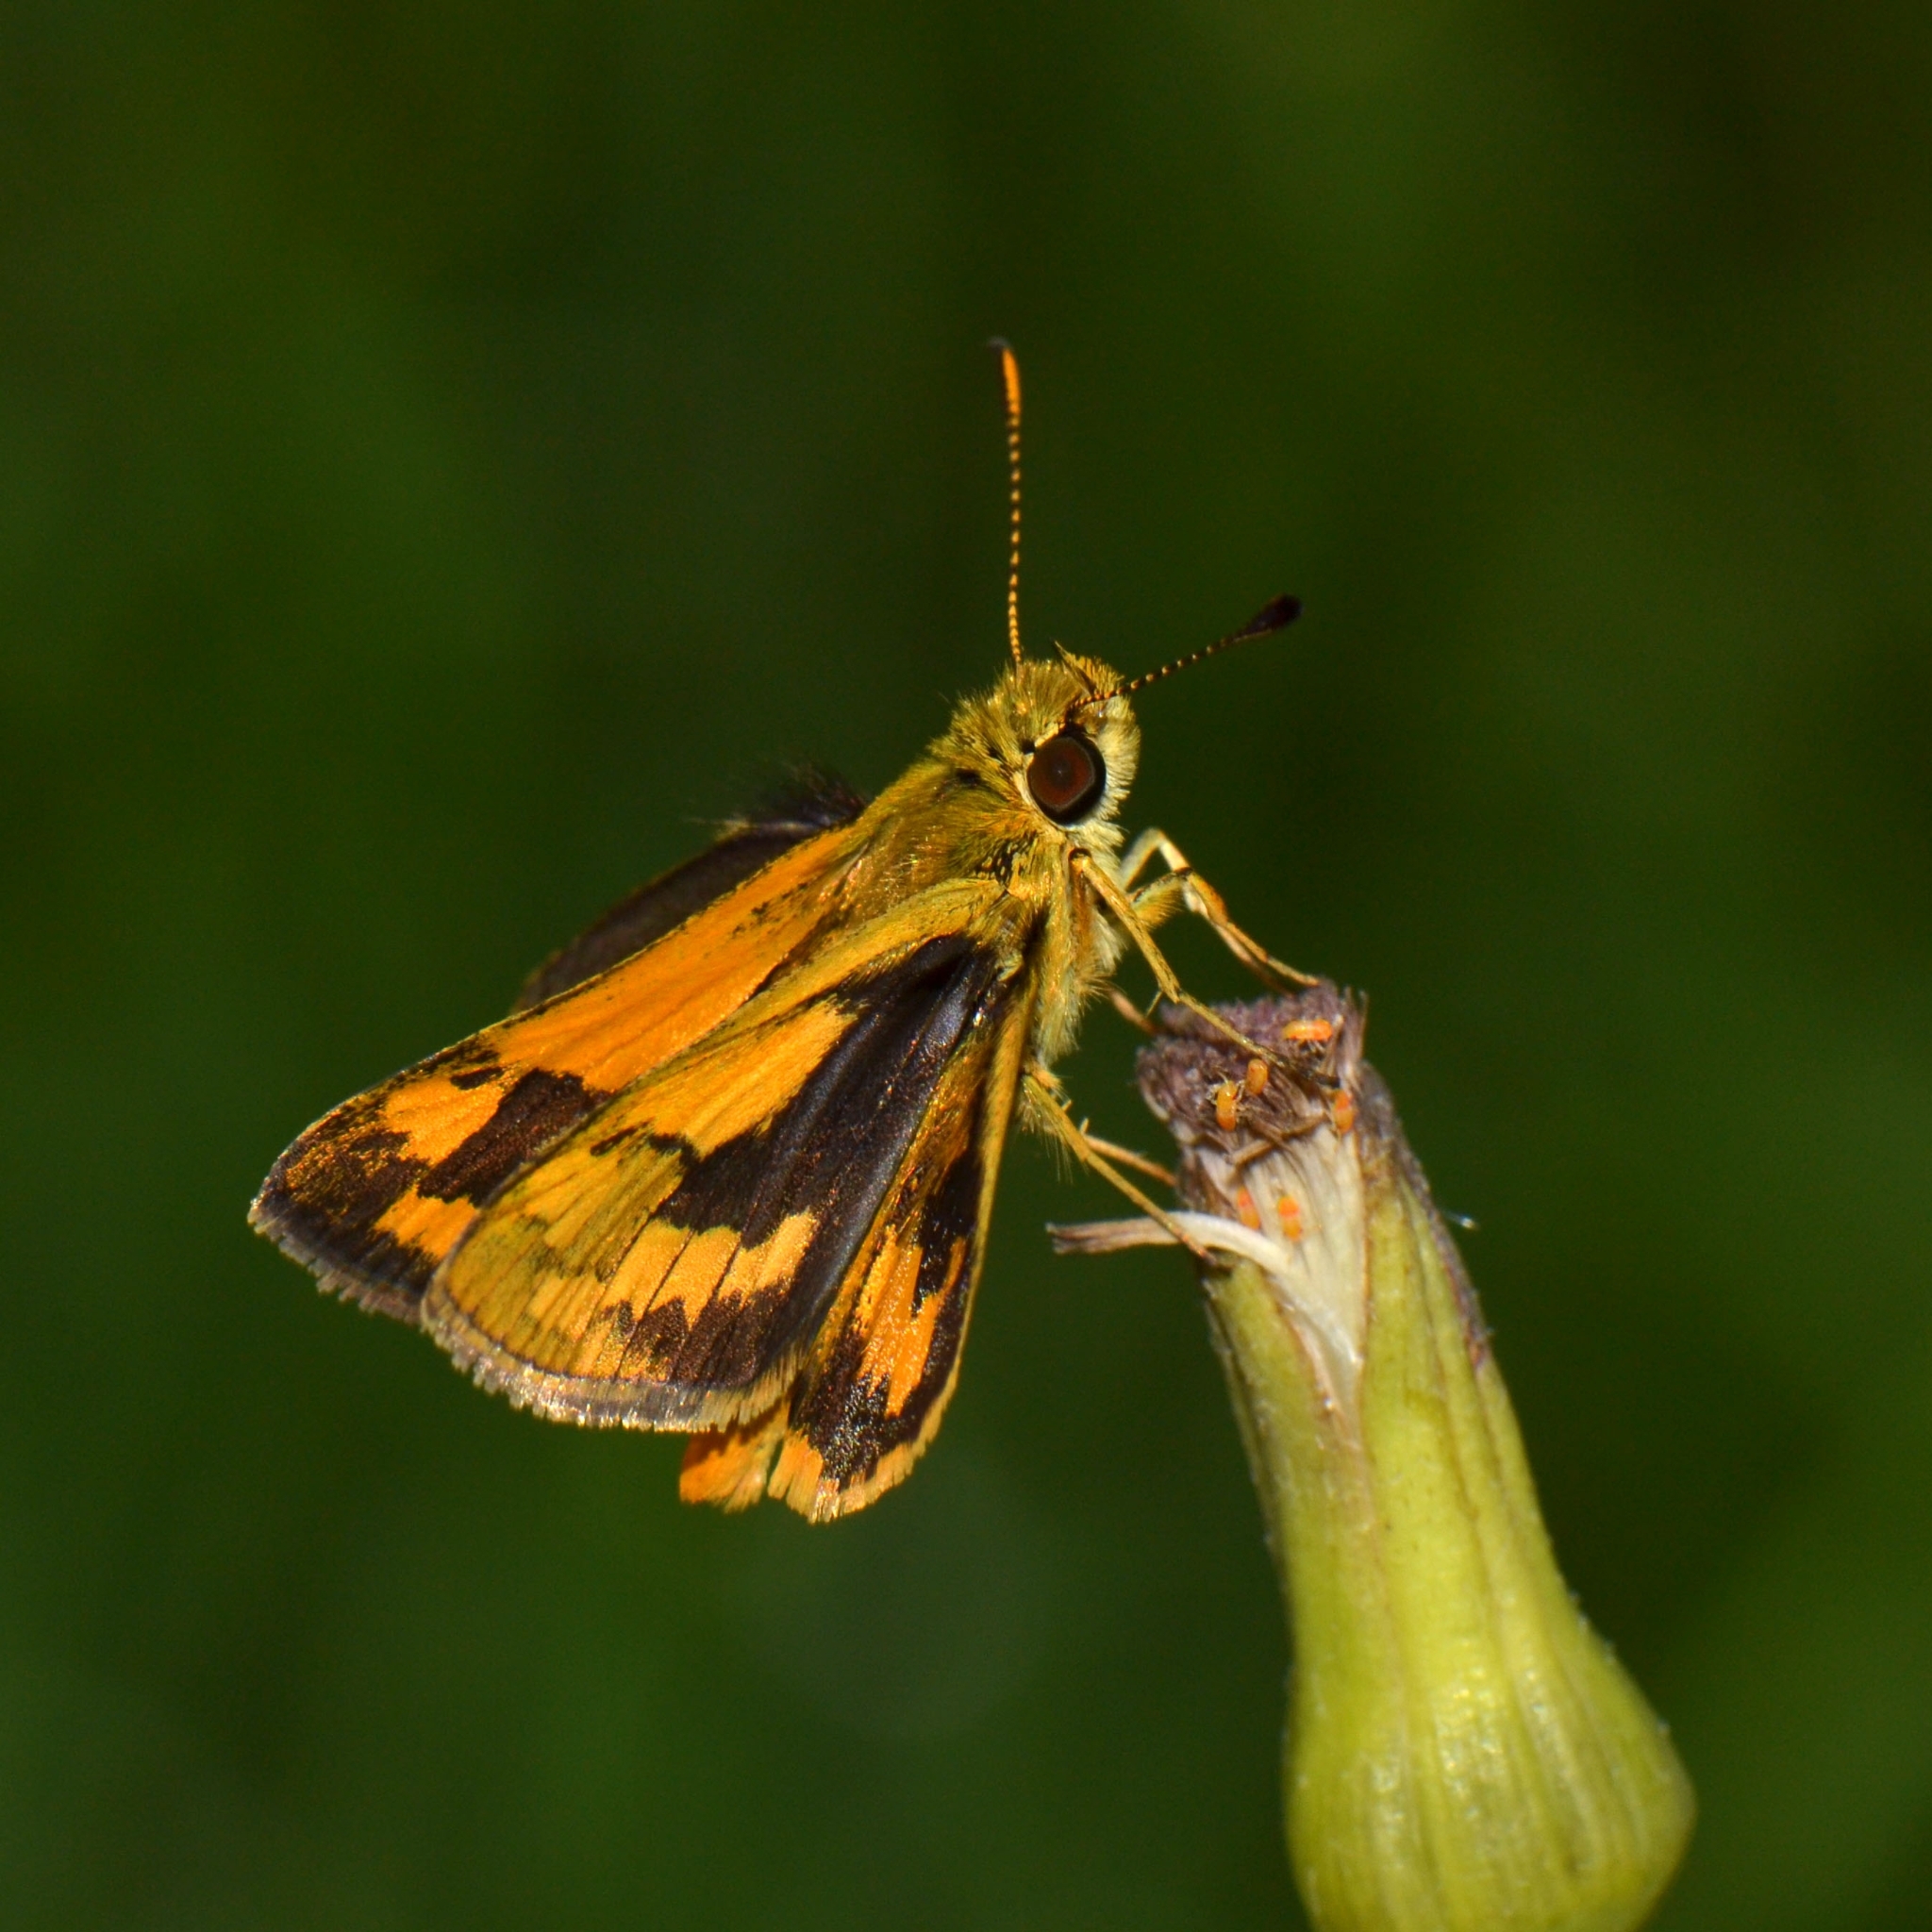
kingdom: Animalia
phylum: Arthropoda
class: Insecta
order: Lepidoptera
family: Hesperiidae
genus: Ocybadistes
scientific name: Ocybadistes walkeri
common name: Yellow-banded dart
